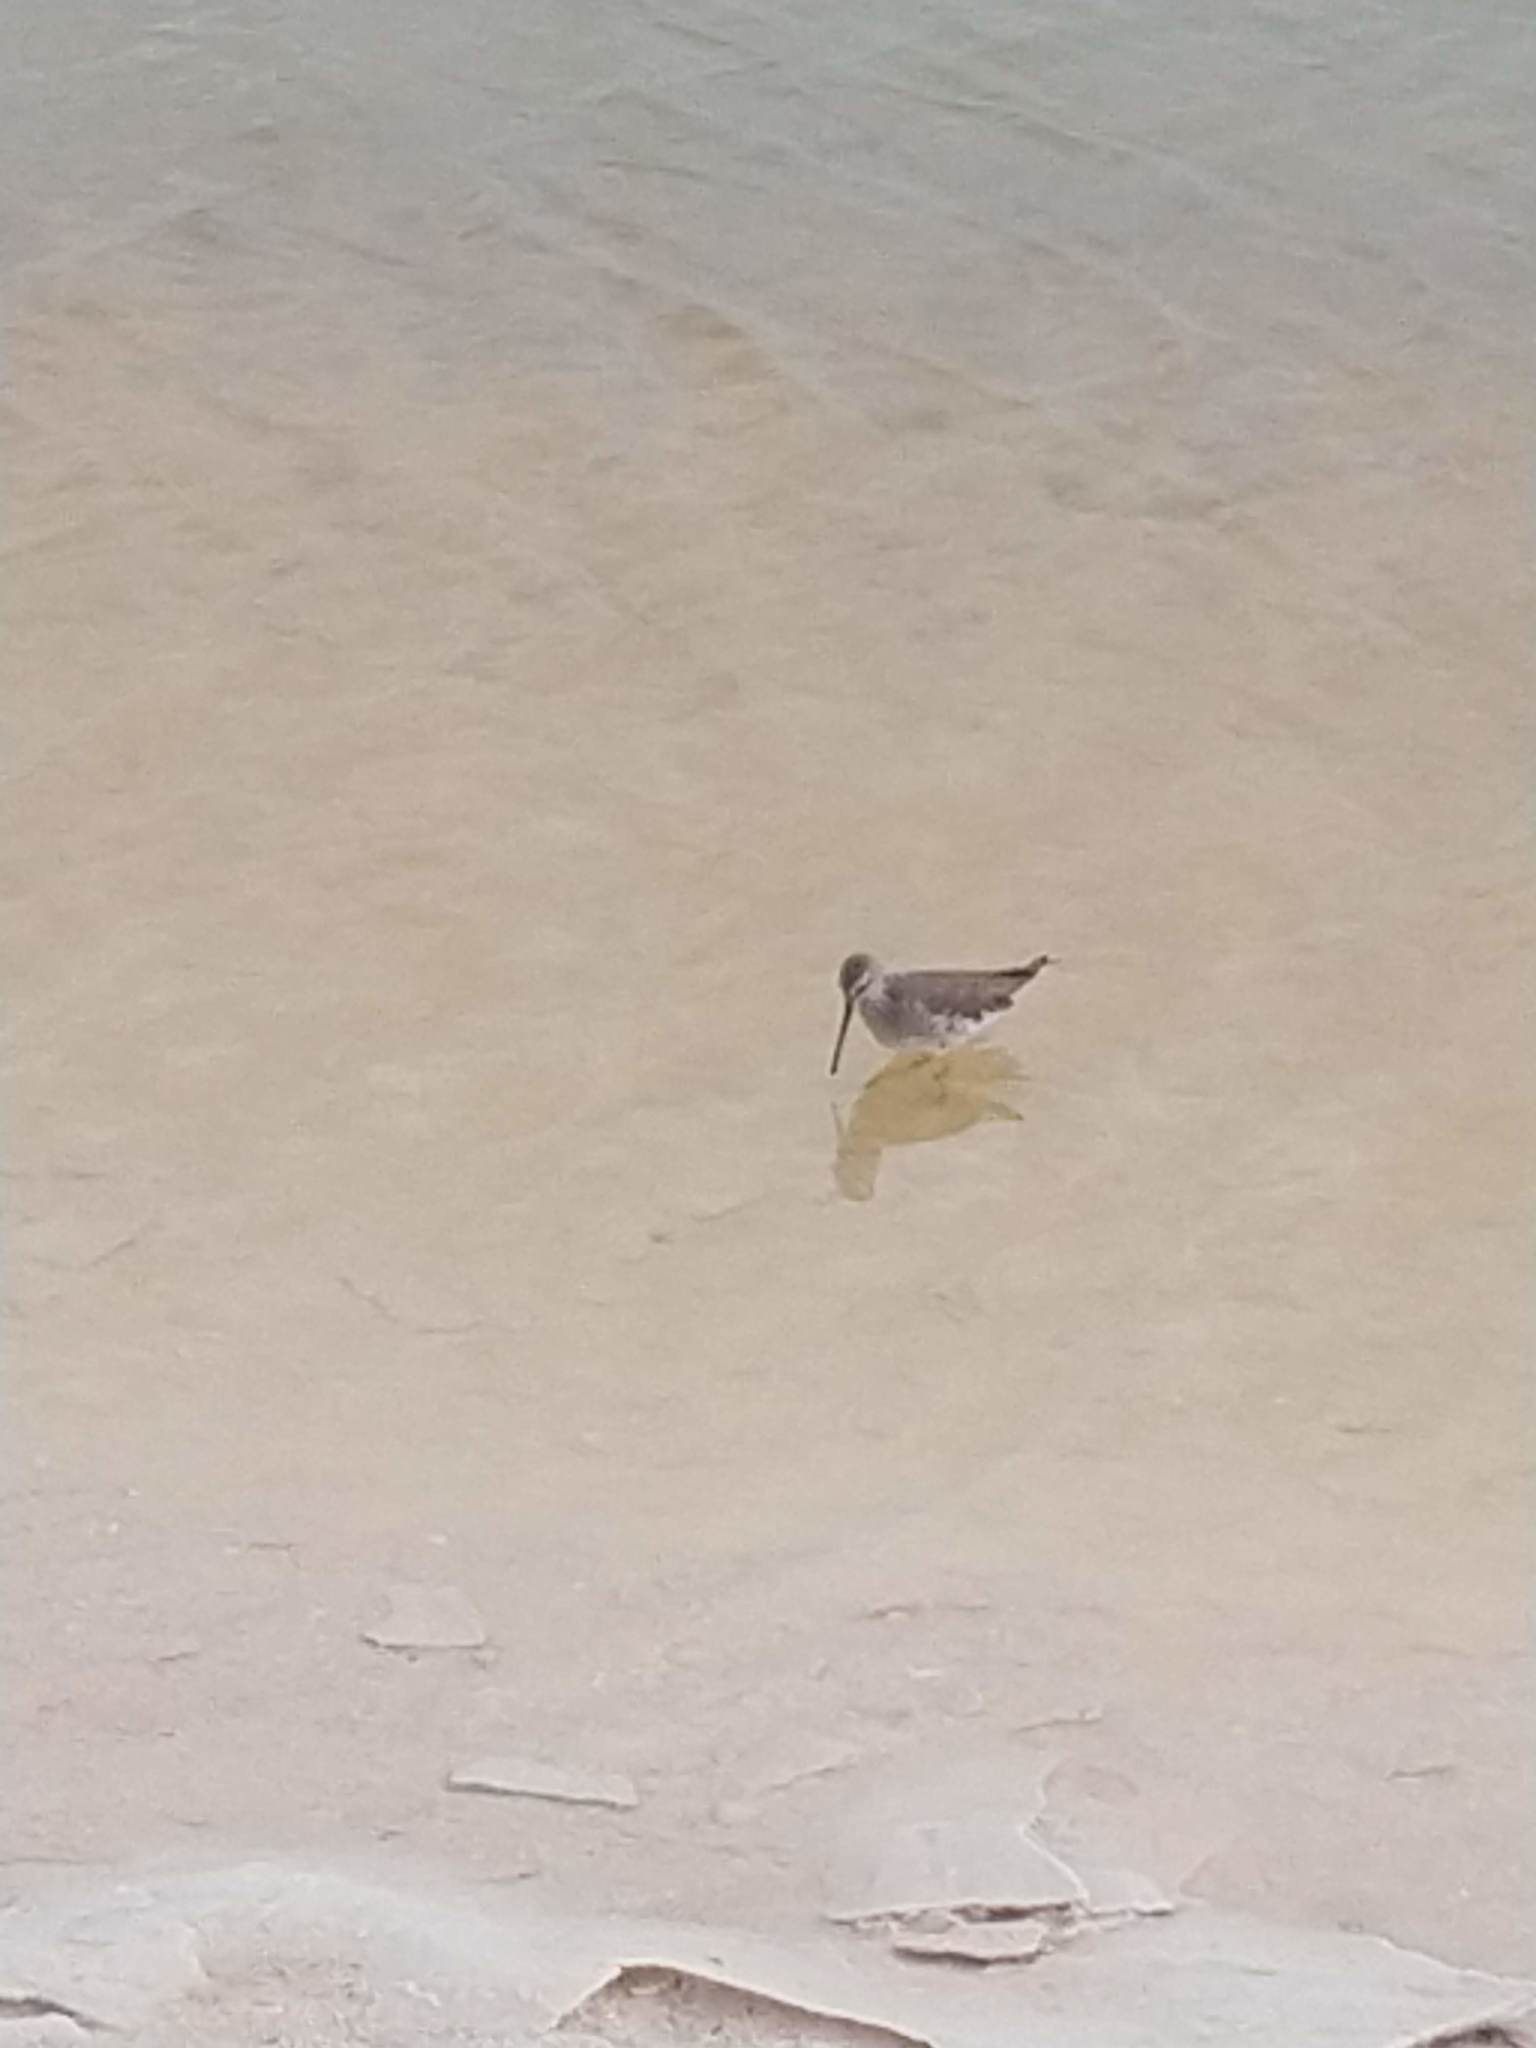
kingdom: Animalia
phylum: Chordata
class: Aves
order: Charadriiformes
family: Scolopacidae
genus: Calidris
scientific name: Calidris himantopus
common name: Stilt sandpiper
